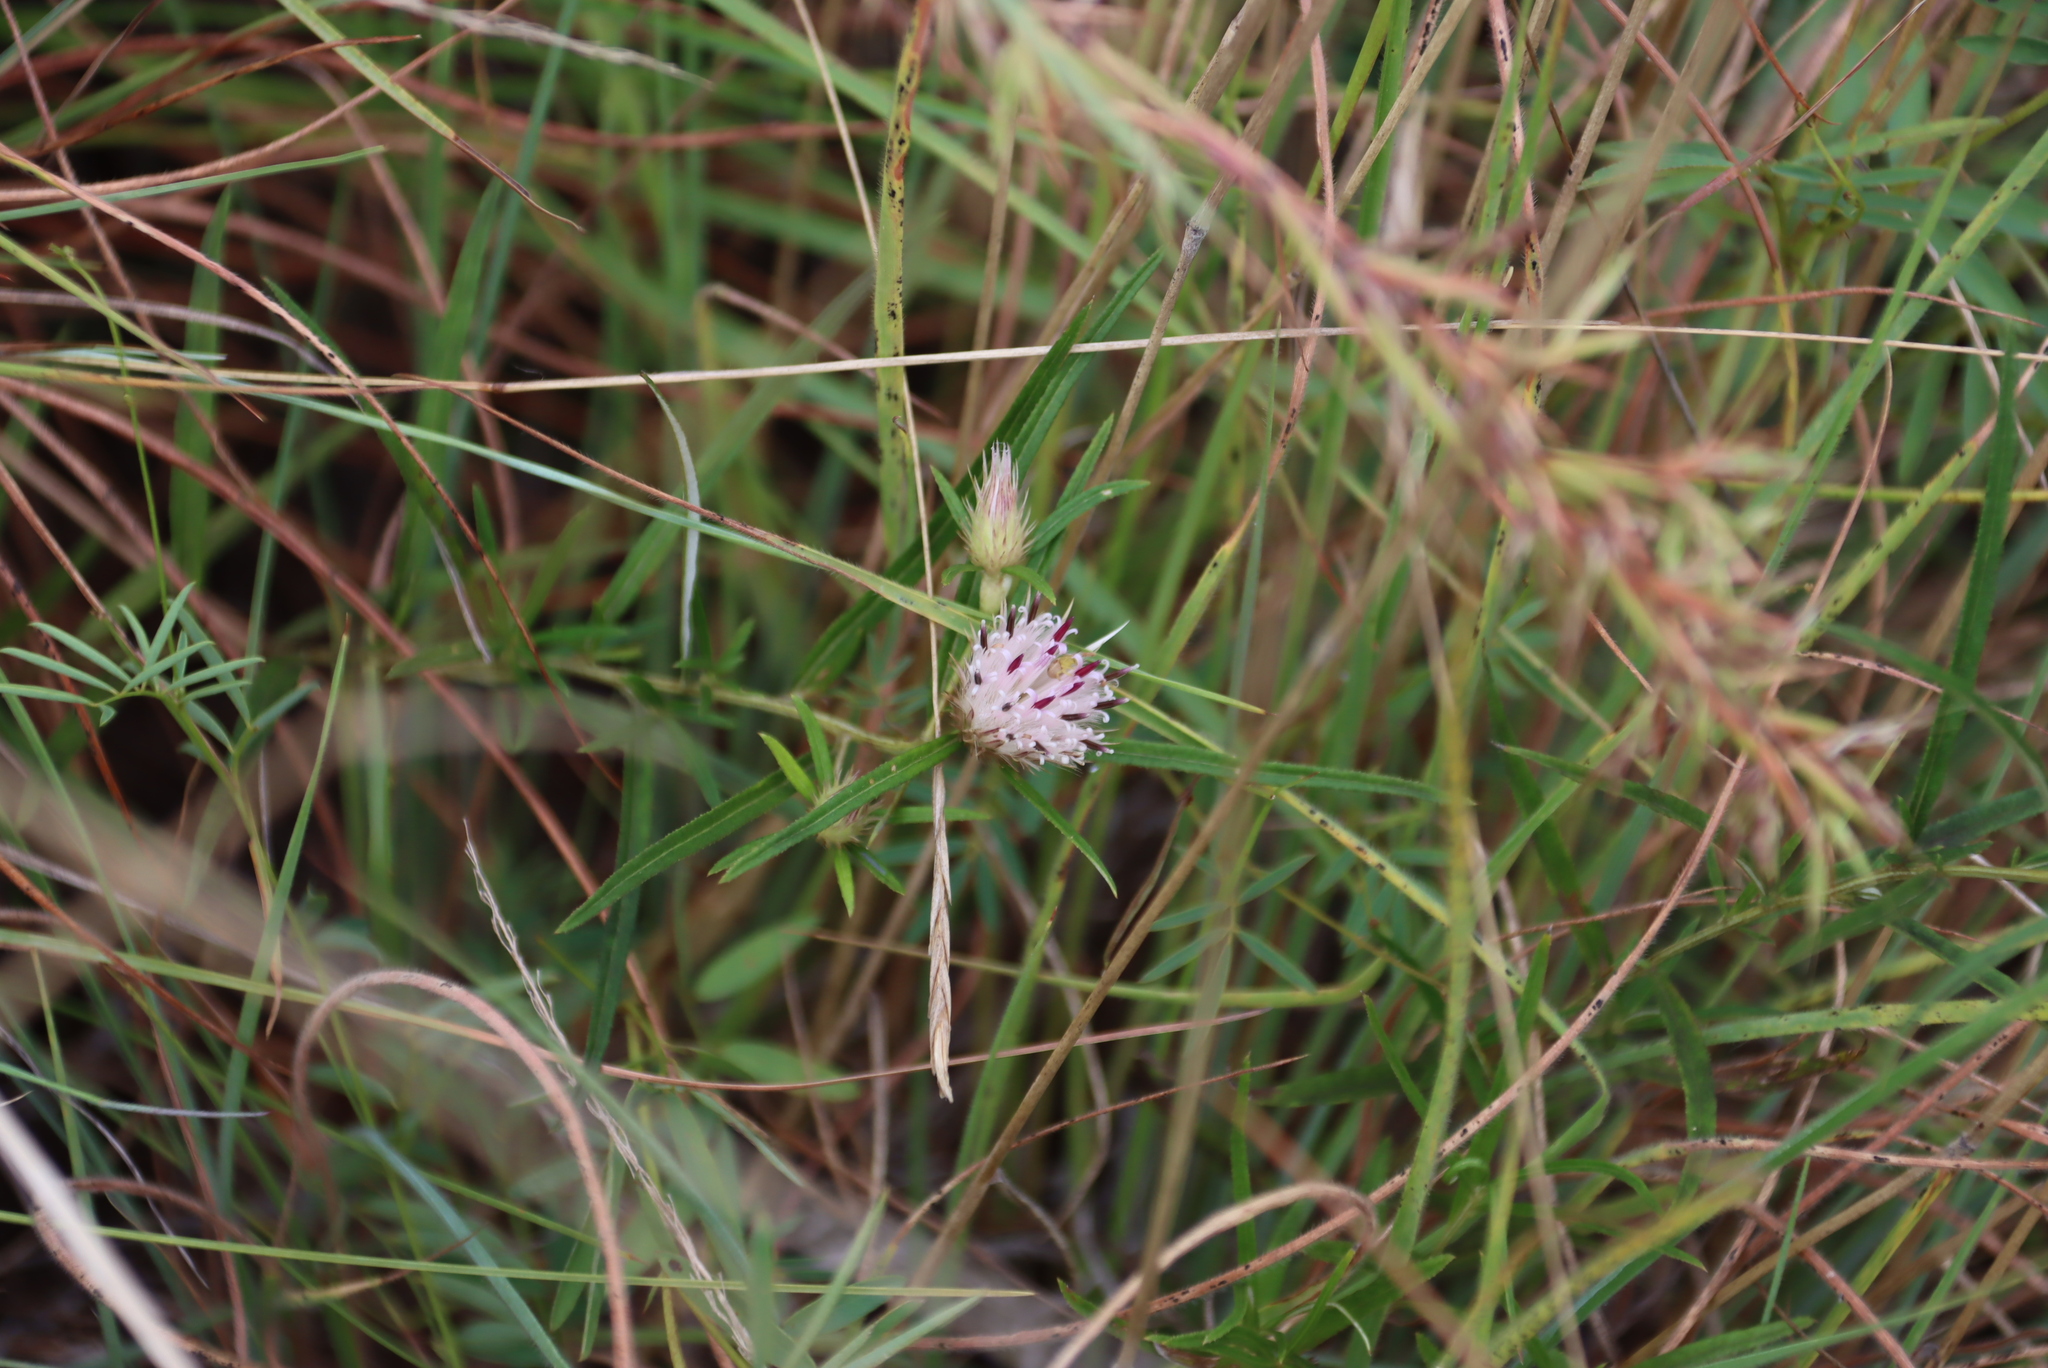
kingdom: Plantae
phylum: Tracheophyta
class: Magnoliopsida
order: Asterales
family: Asteraceae
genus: Dicoma
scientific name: Dicoma anomala
